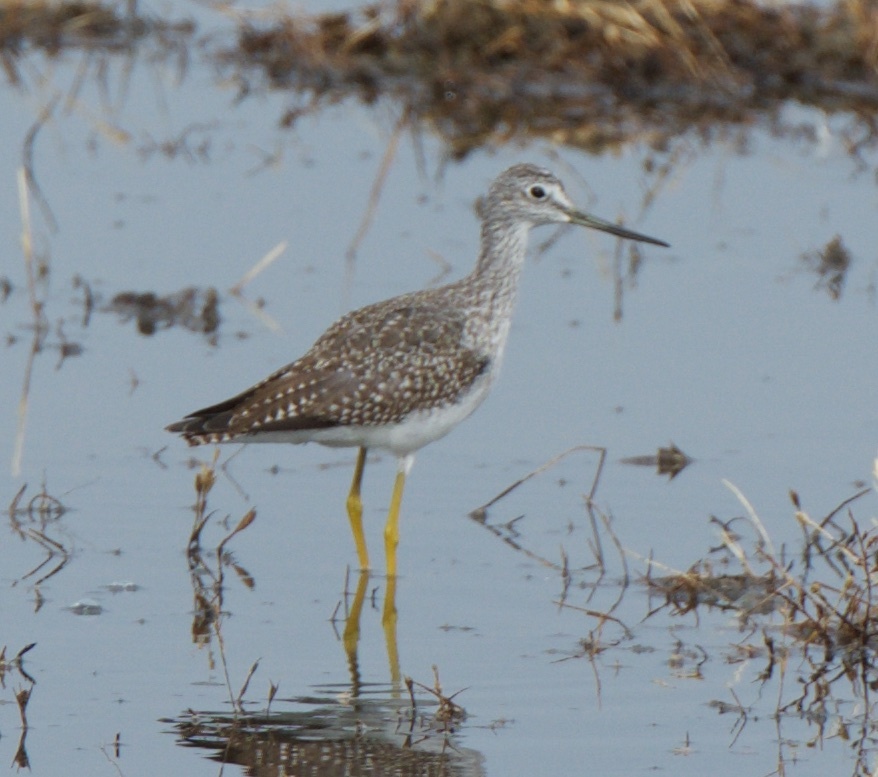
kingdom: Animalia
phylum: Chordata
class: Aves
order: Charadriiformes
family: Scolopacidae
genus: Tringa
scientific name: Tringa melanoleuca
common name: Greater yellowlegs
